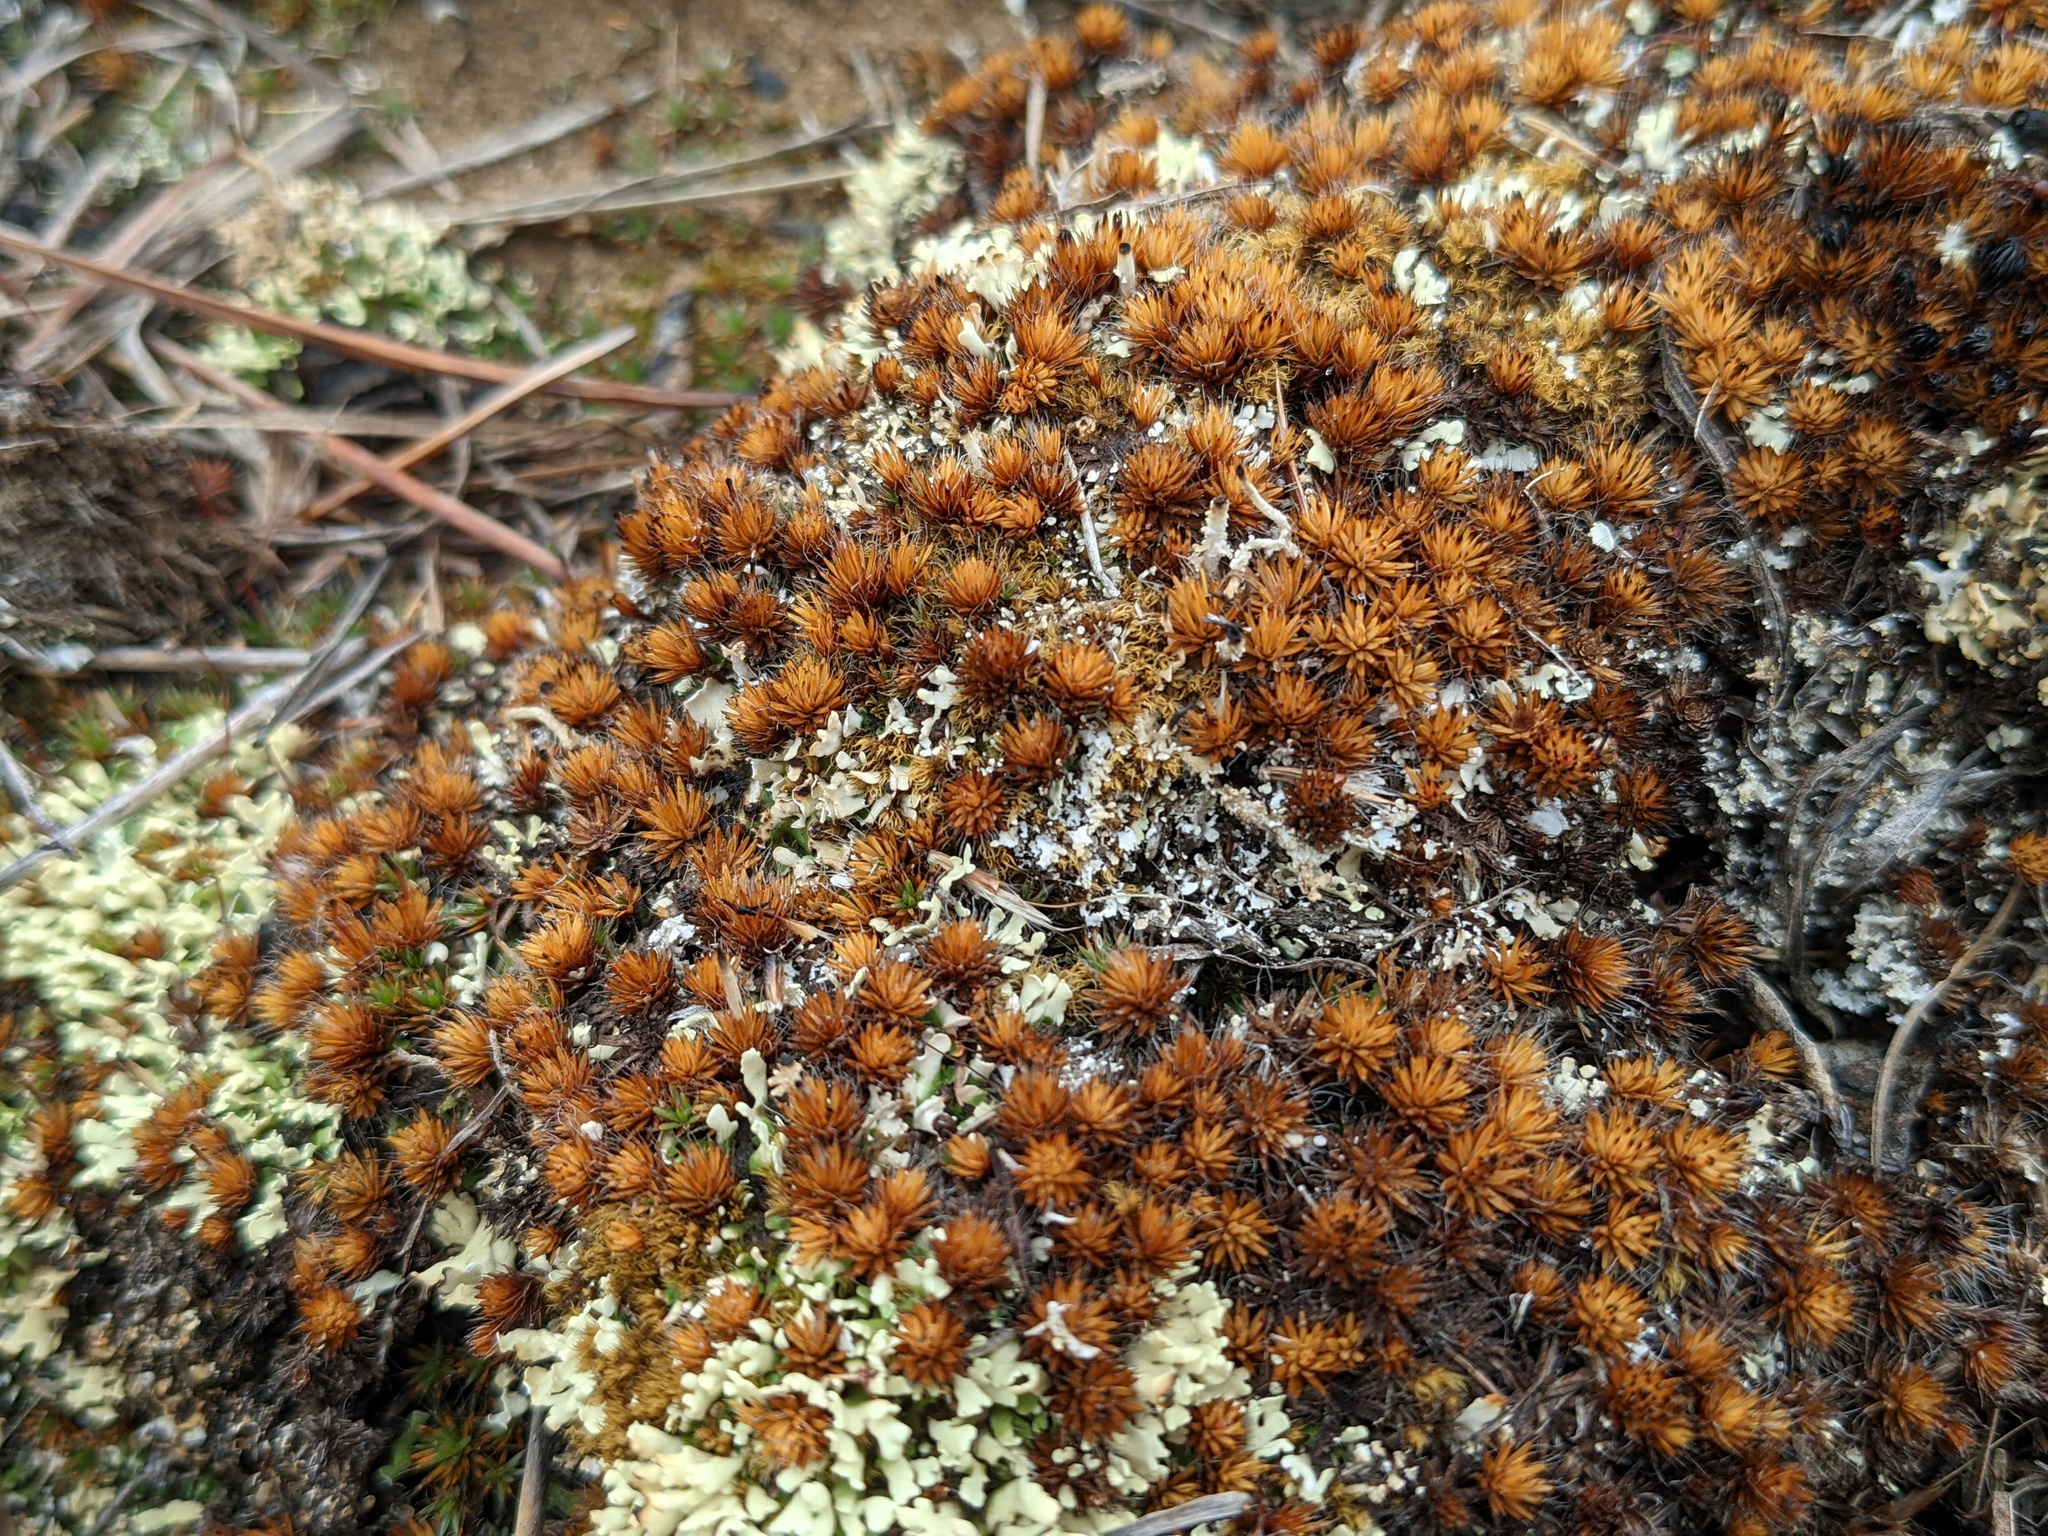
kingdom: Plantae
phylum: Bryophyta
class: Polytrichopsida
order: Polytrichales
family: Polytrichaceae
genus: Polytrichum
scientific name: Polytrichum piliferum
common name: Bristly haircap
